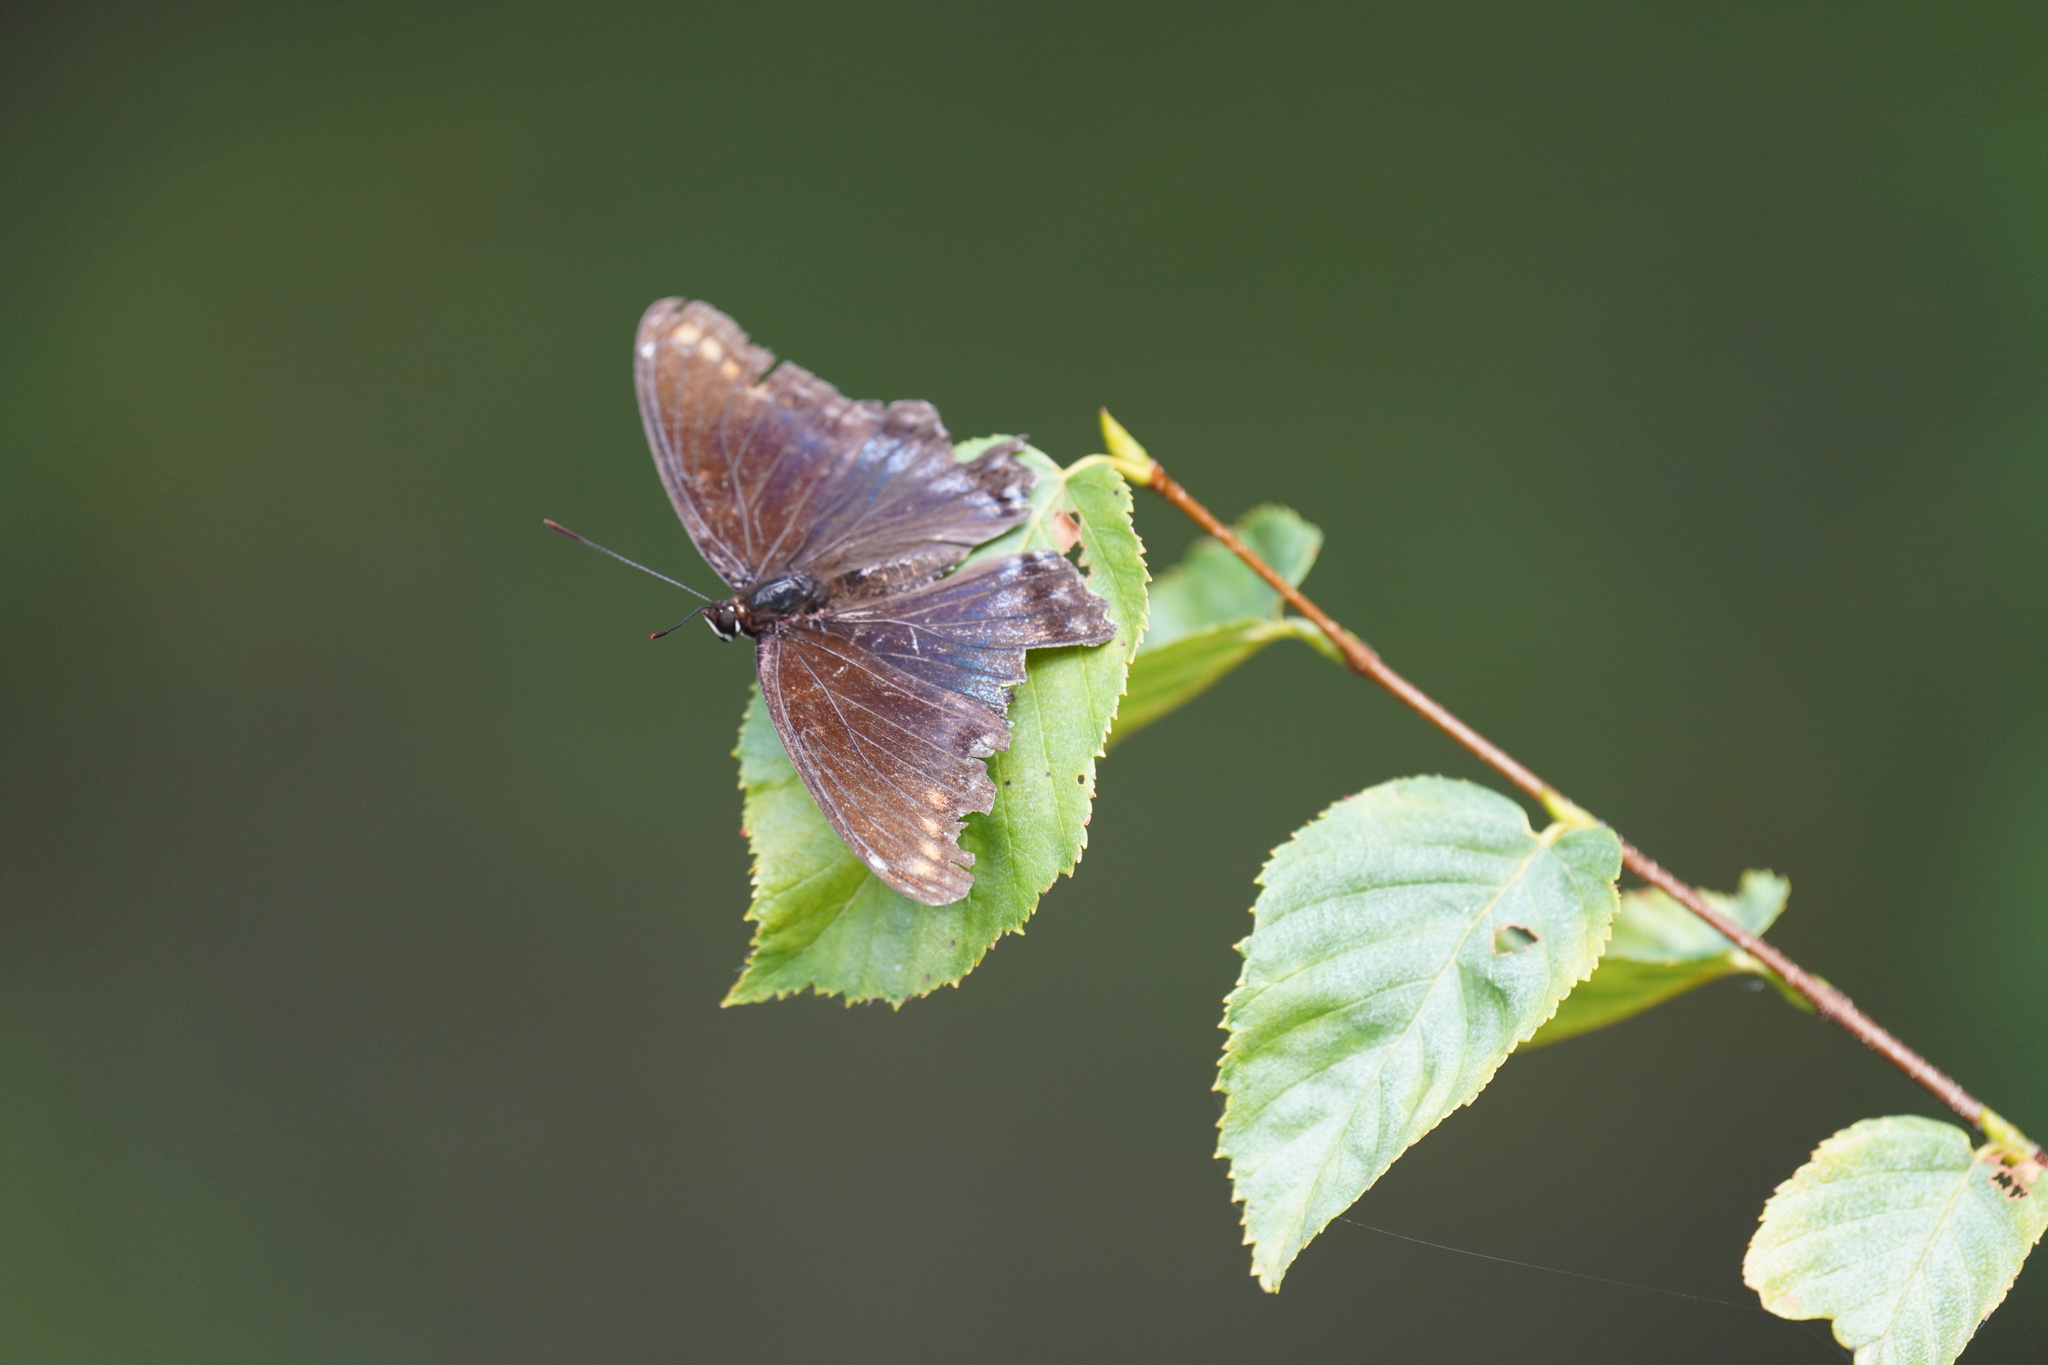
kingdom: Animalia
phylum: Arthropoda
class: Insecta
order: Lepidoptera
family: Nymphalidae
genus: Limenitis
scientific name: Limenitis astyanax
